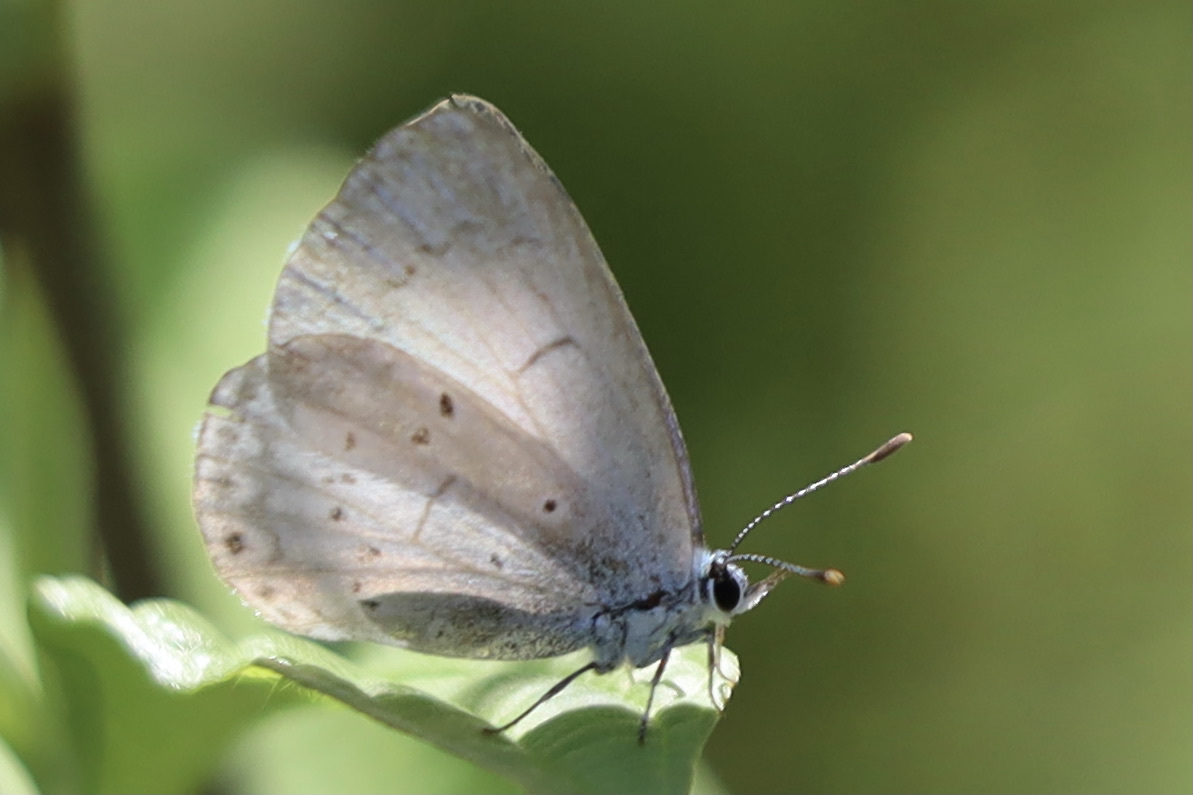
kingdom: Animalia
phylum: Arthropoda
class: Insecta
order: Lepidoptera
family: Lycaenidae
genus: Celastrina
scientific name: Celastrina ladon
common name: Spring azure
